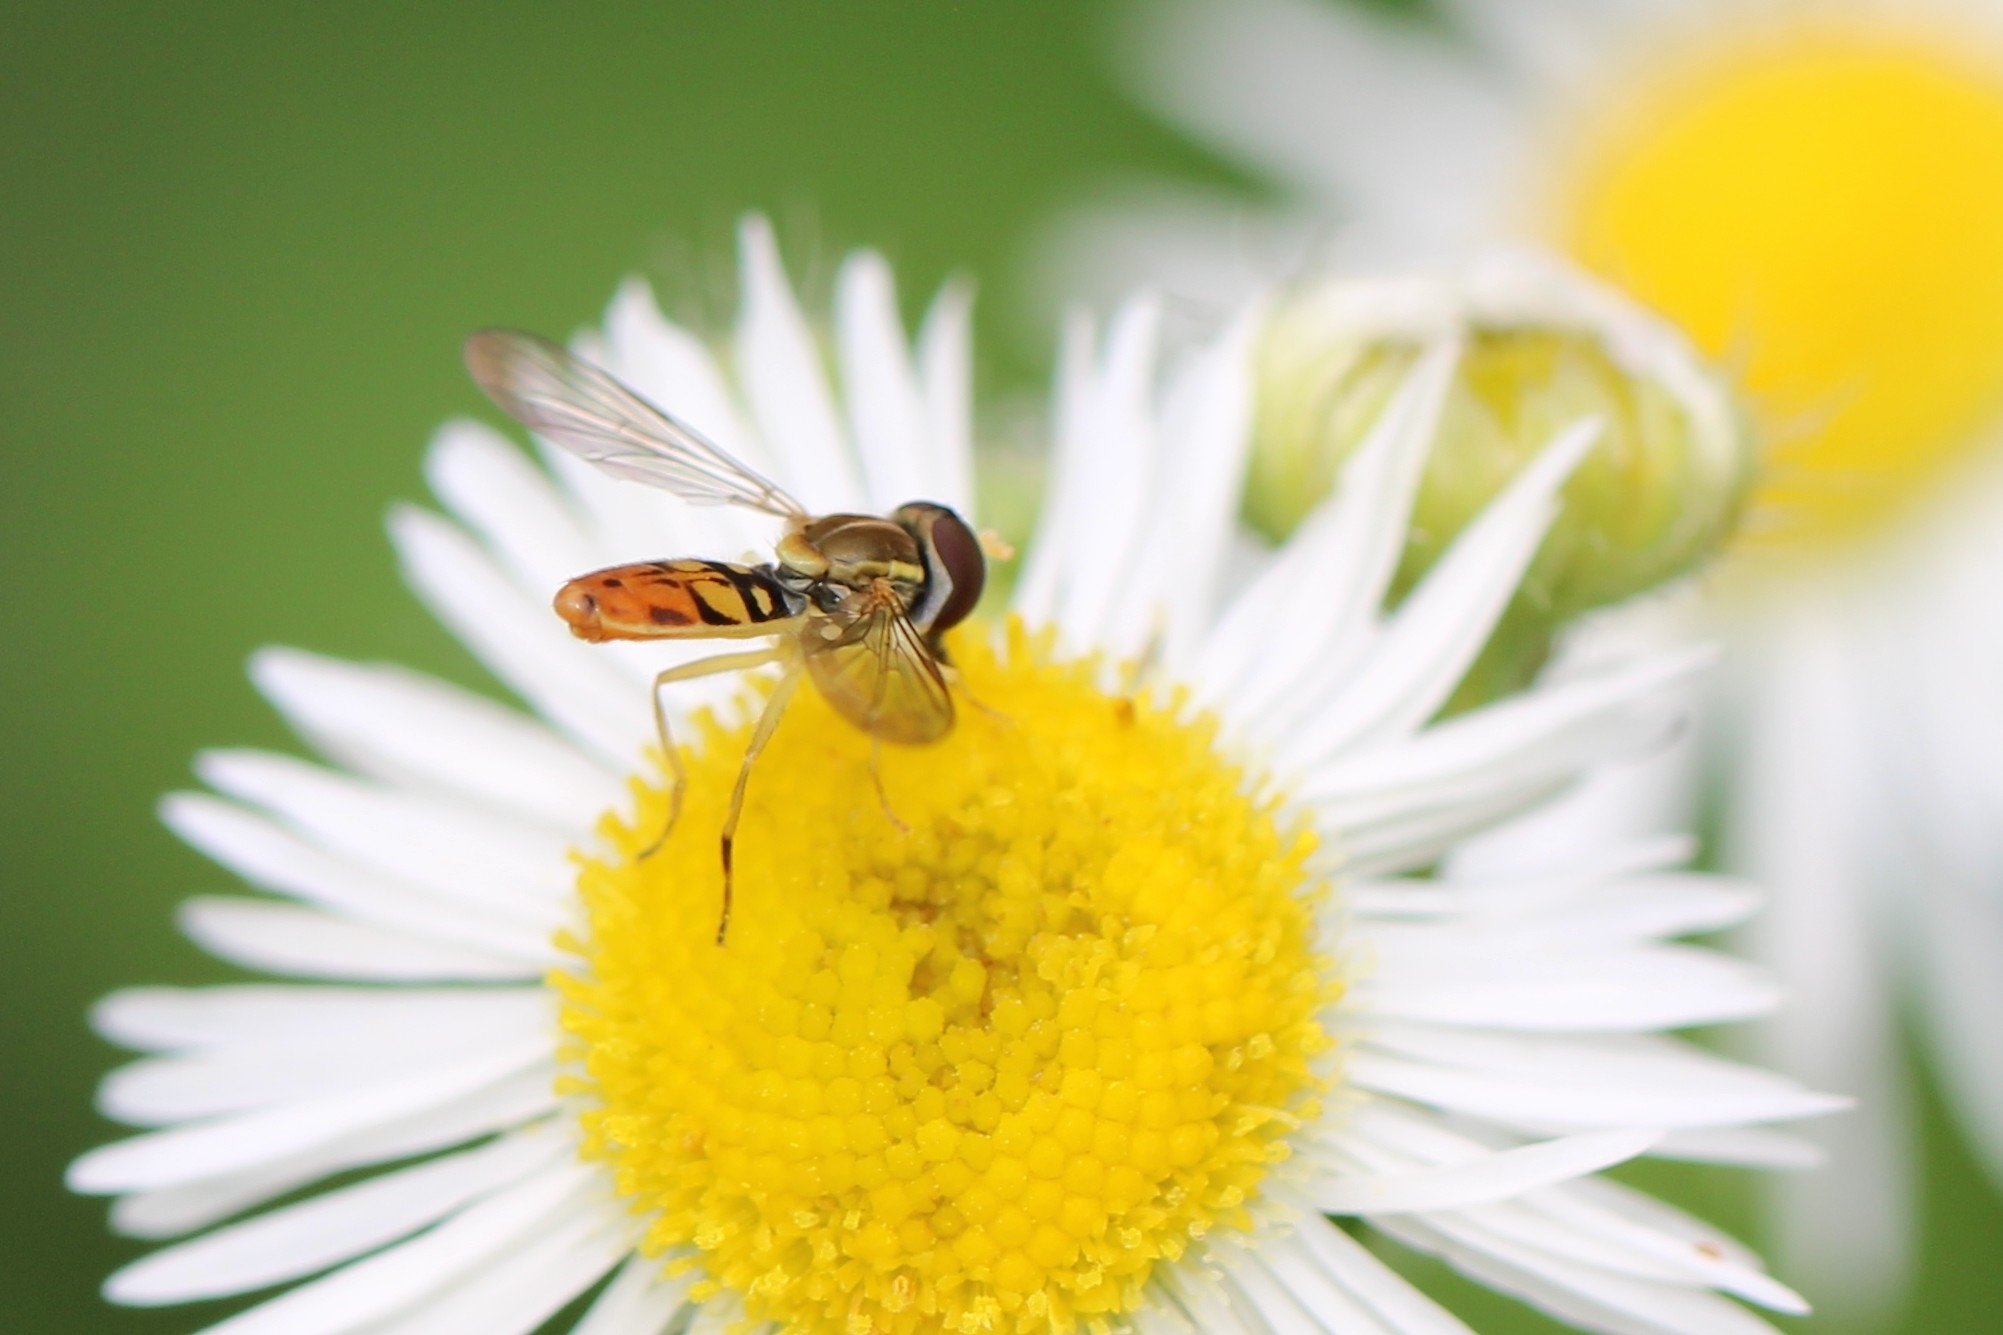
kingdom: Animalia
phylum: Arthropoda
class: Insecta
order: Diptera
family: Syrphidae
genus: Toxomerus
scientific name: Toxomerus marginatus
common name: Syrphid fly
